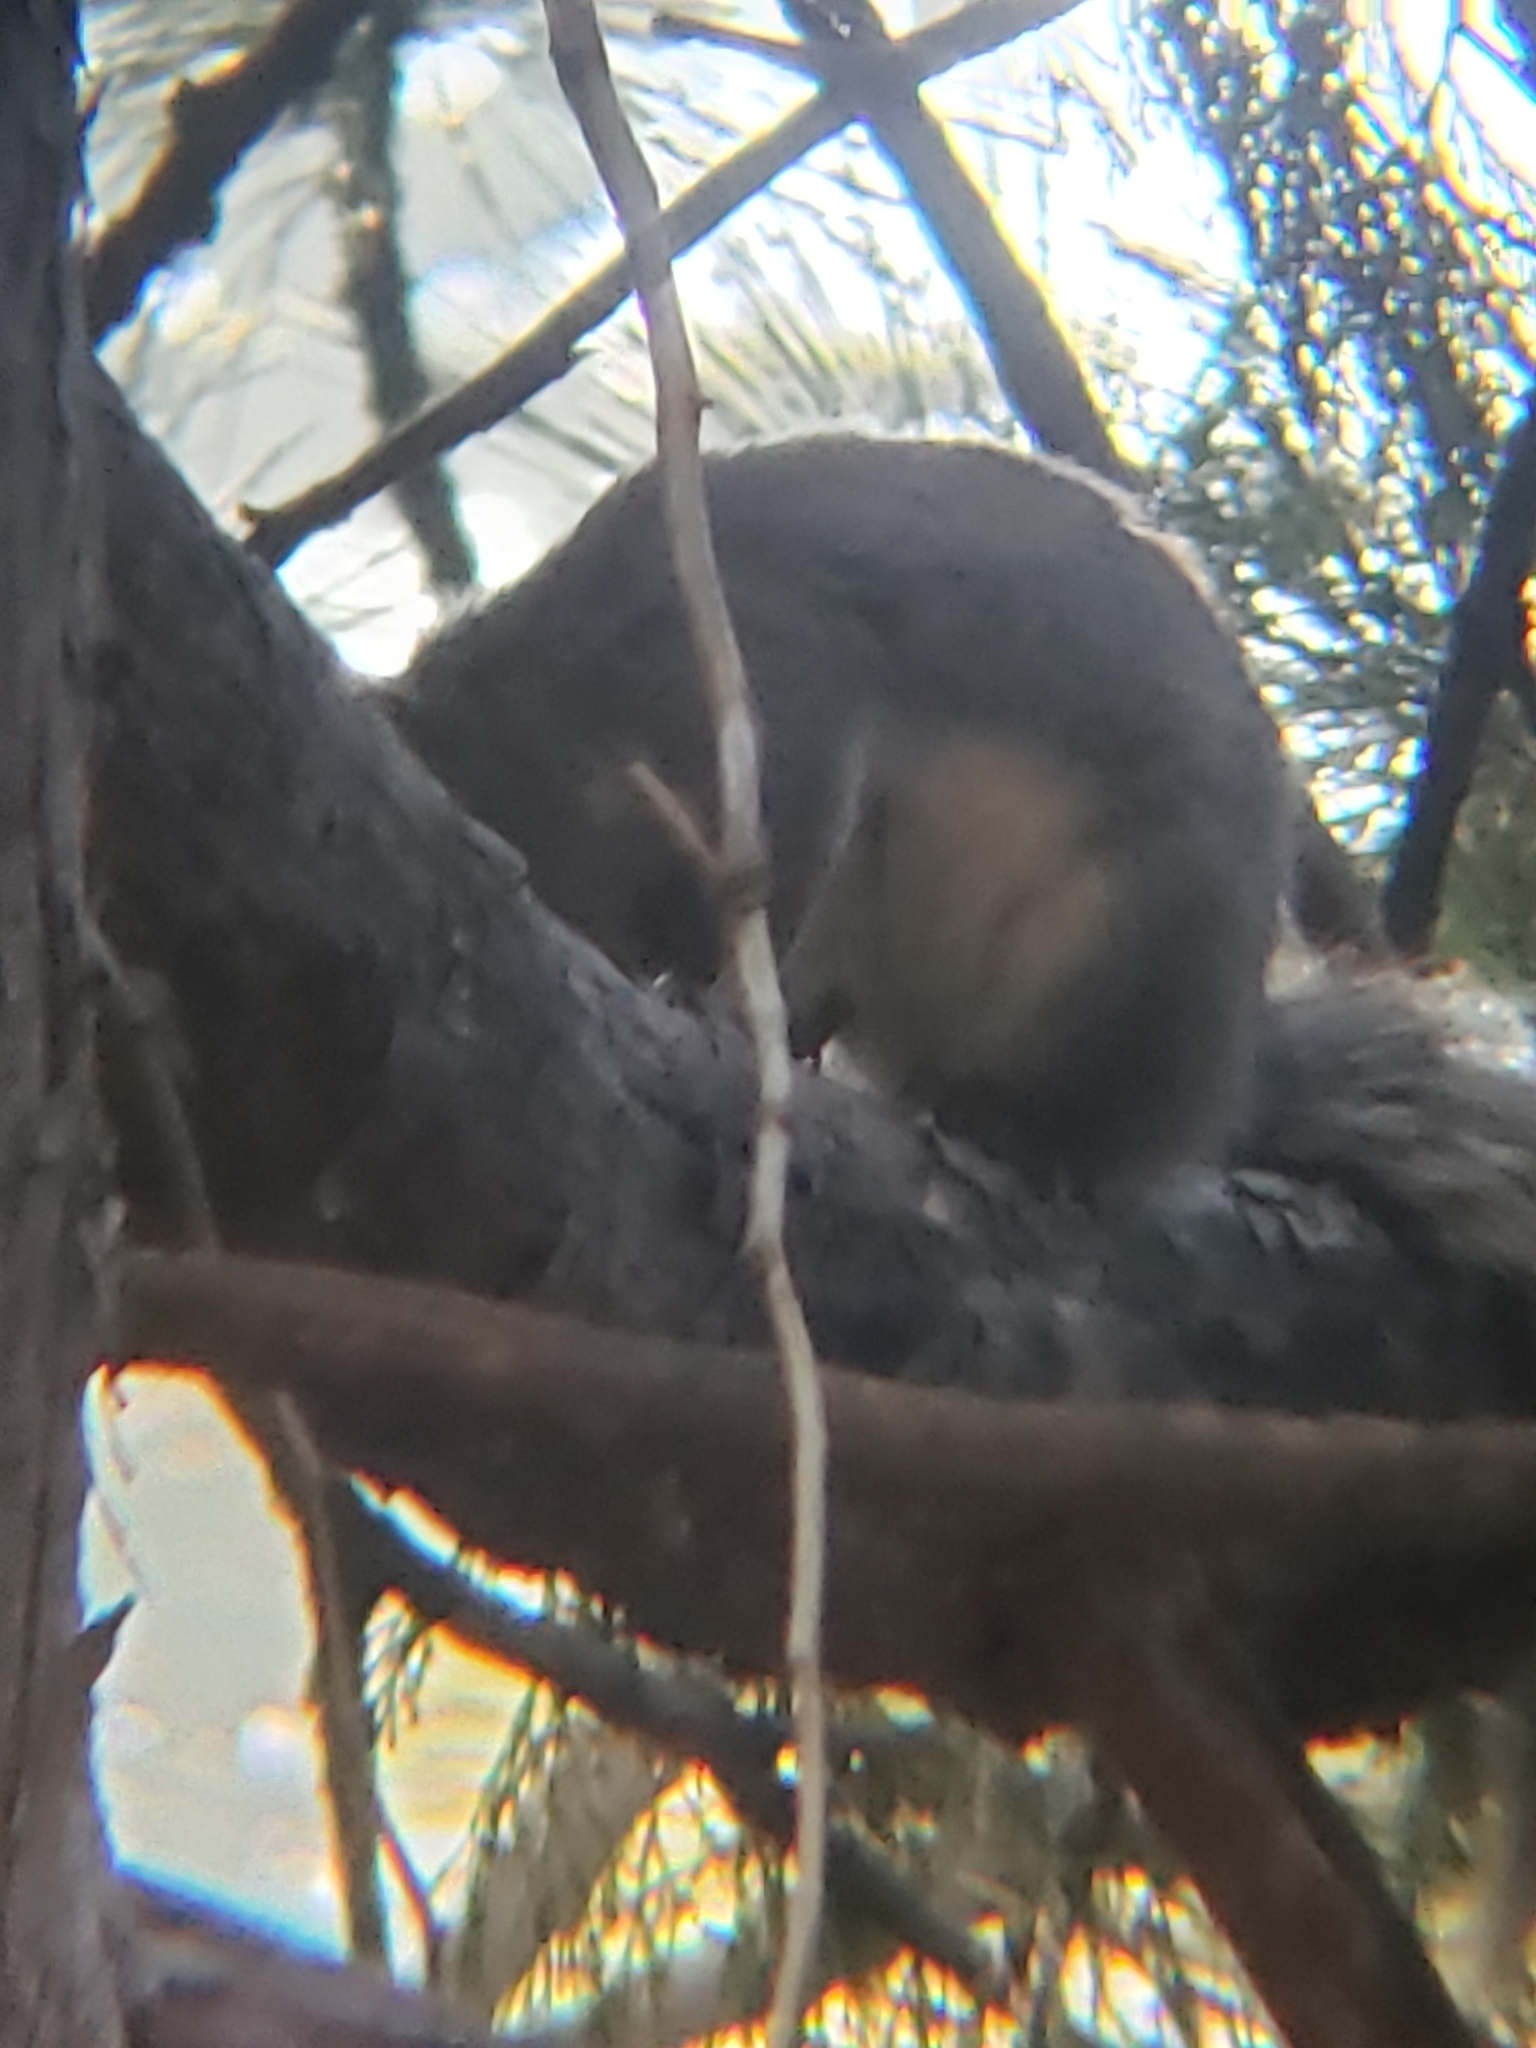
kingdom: Animalia
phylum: Chordata
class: Mammalia
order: Rodentia
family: Sciuridae
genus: Sciurus
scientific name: Sciurus griseus
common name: Western gray squirrel
